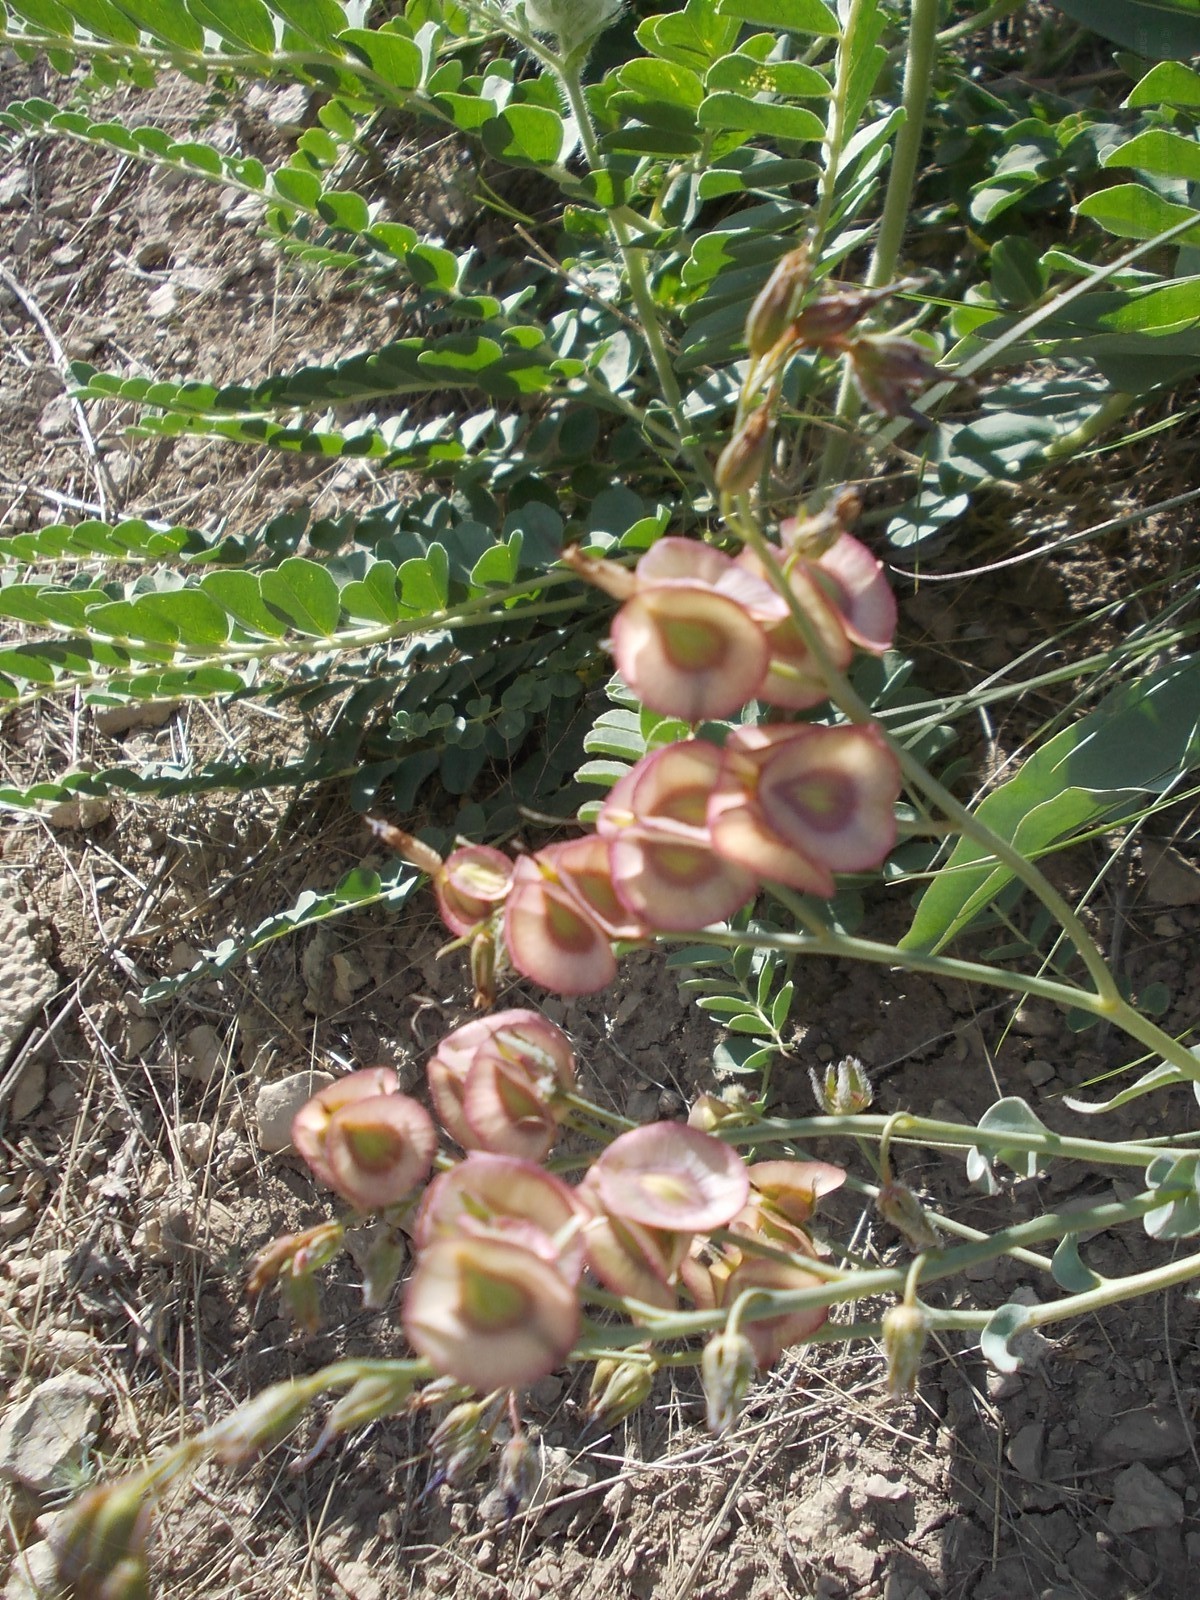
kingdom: Plantae
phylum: Tracheophyta
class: Magnoliopsida
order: Boraginales
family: Boraginaceae
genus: Rindera
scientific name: Rindera tetraspis
